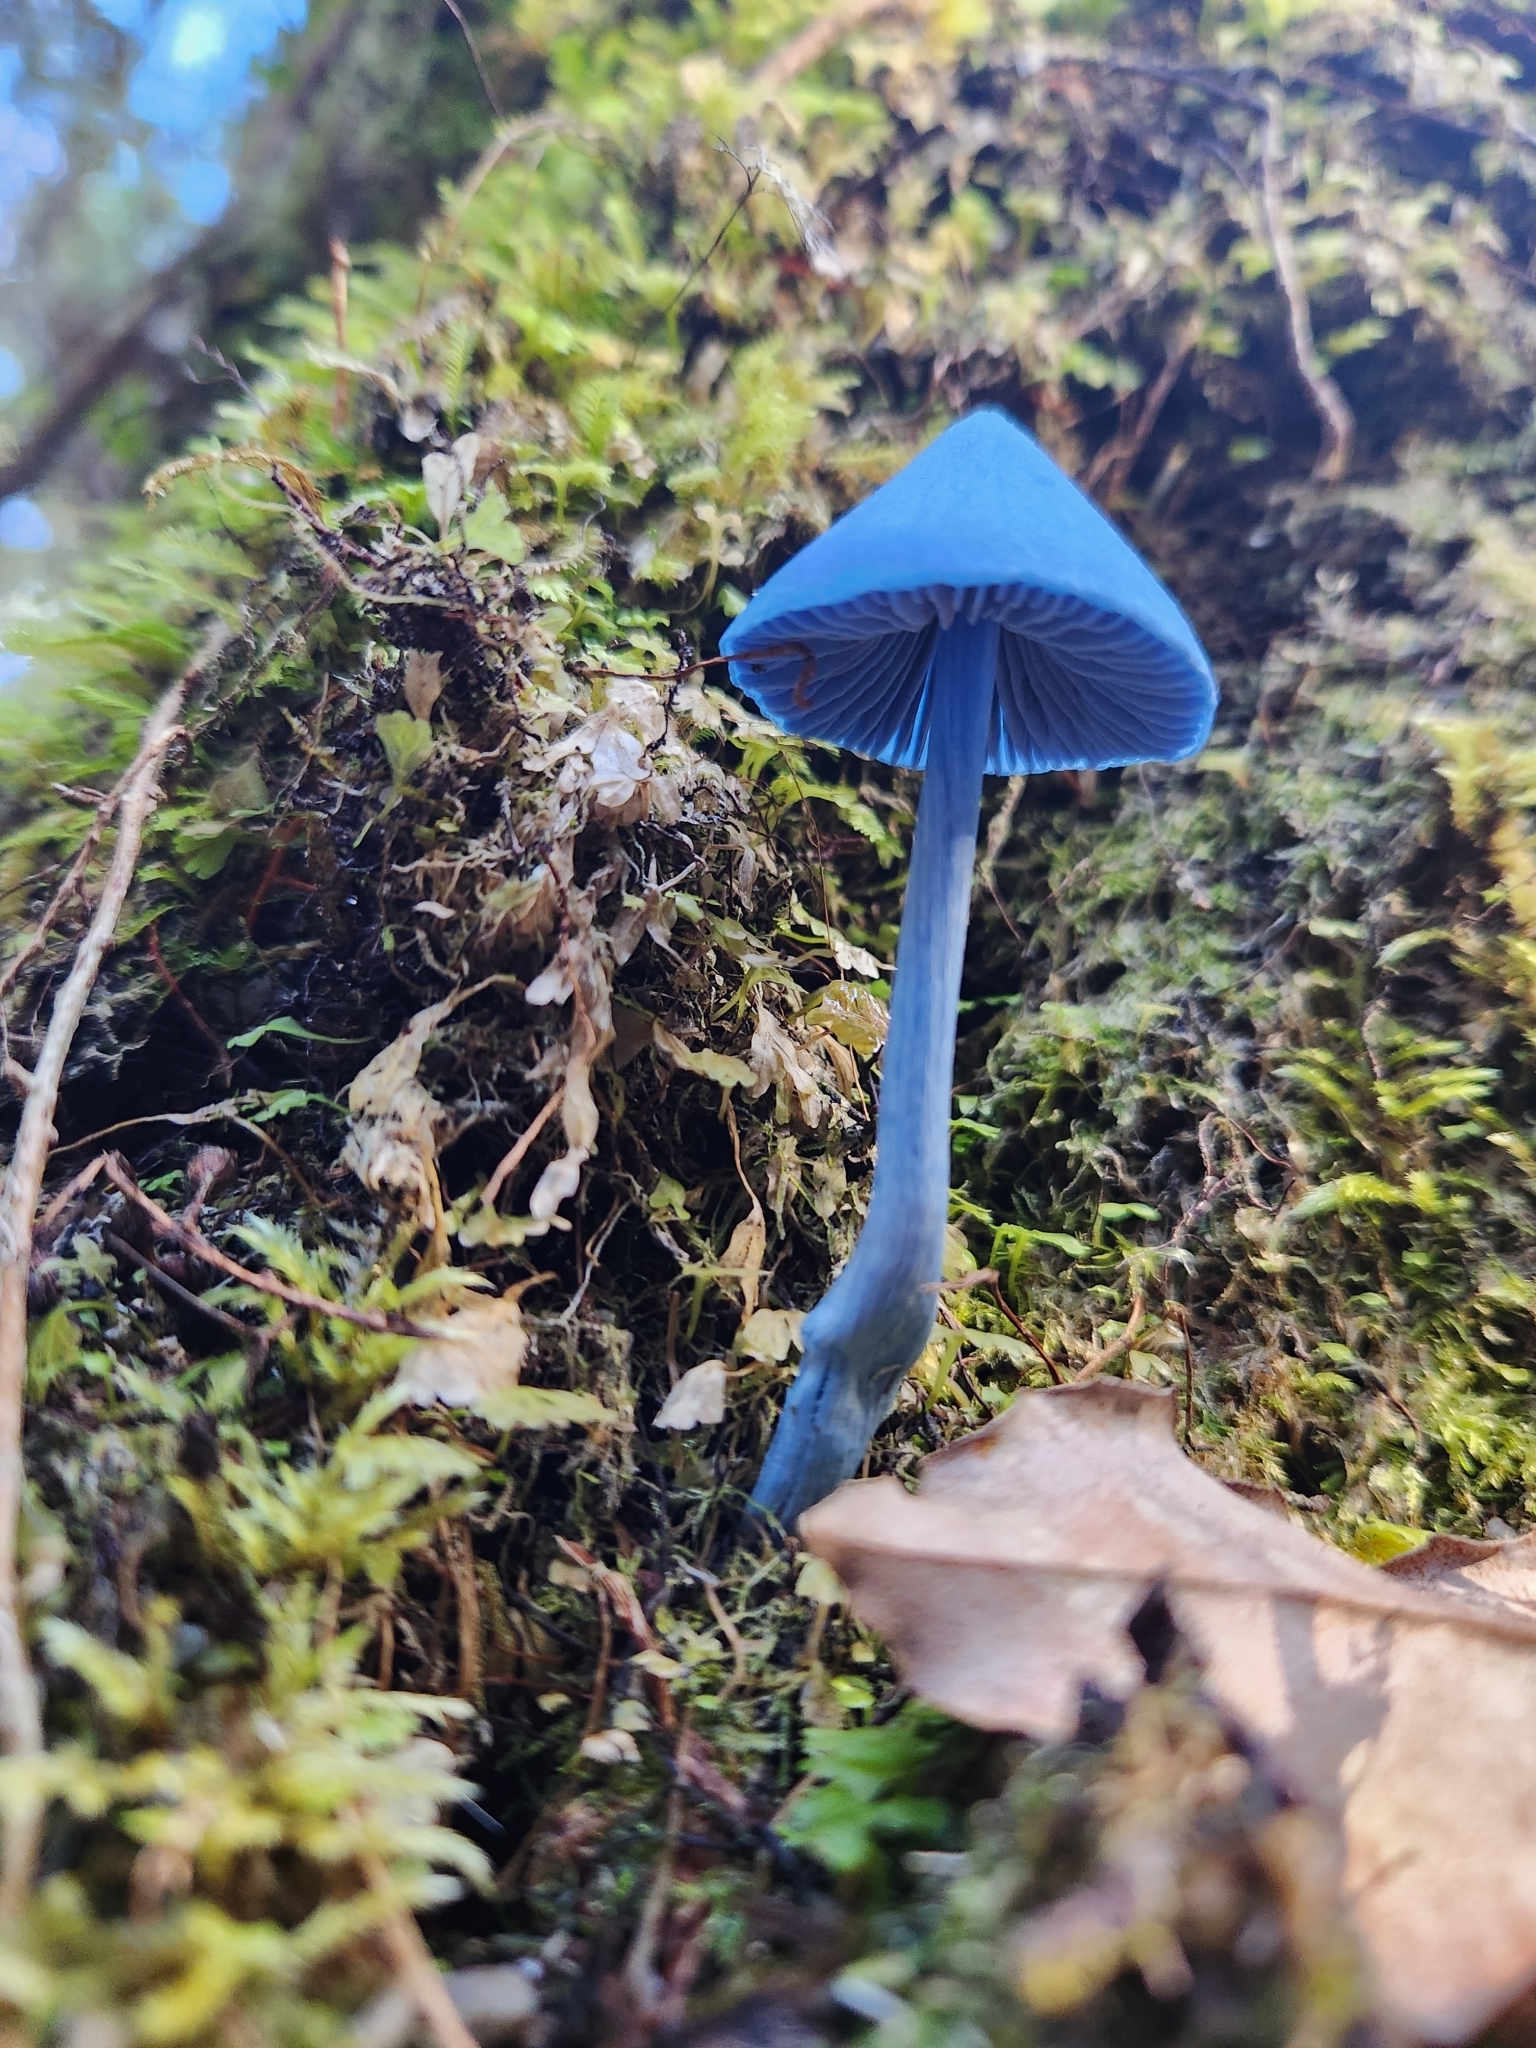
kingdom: Fungi
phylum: Basidiomycota
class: Agaricomycetes
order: Agaricales
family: Entolomataceae
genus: Entoloma
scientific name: Entoloma hochstetteri
